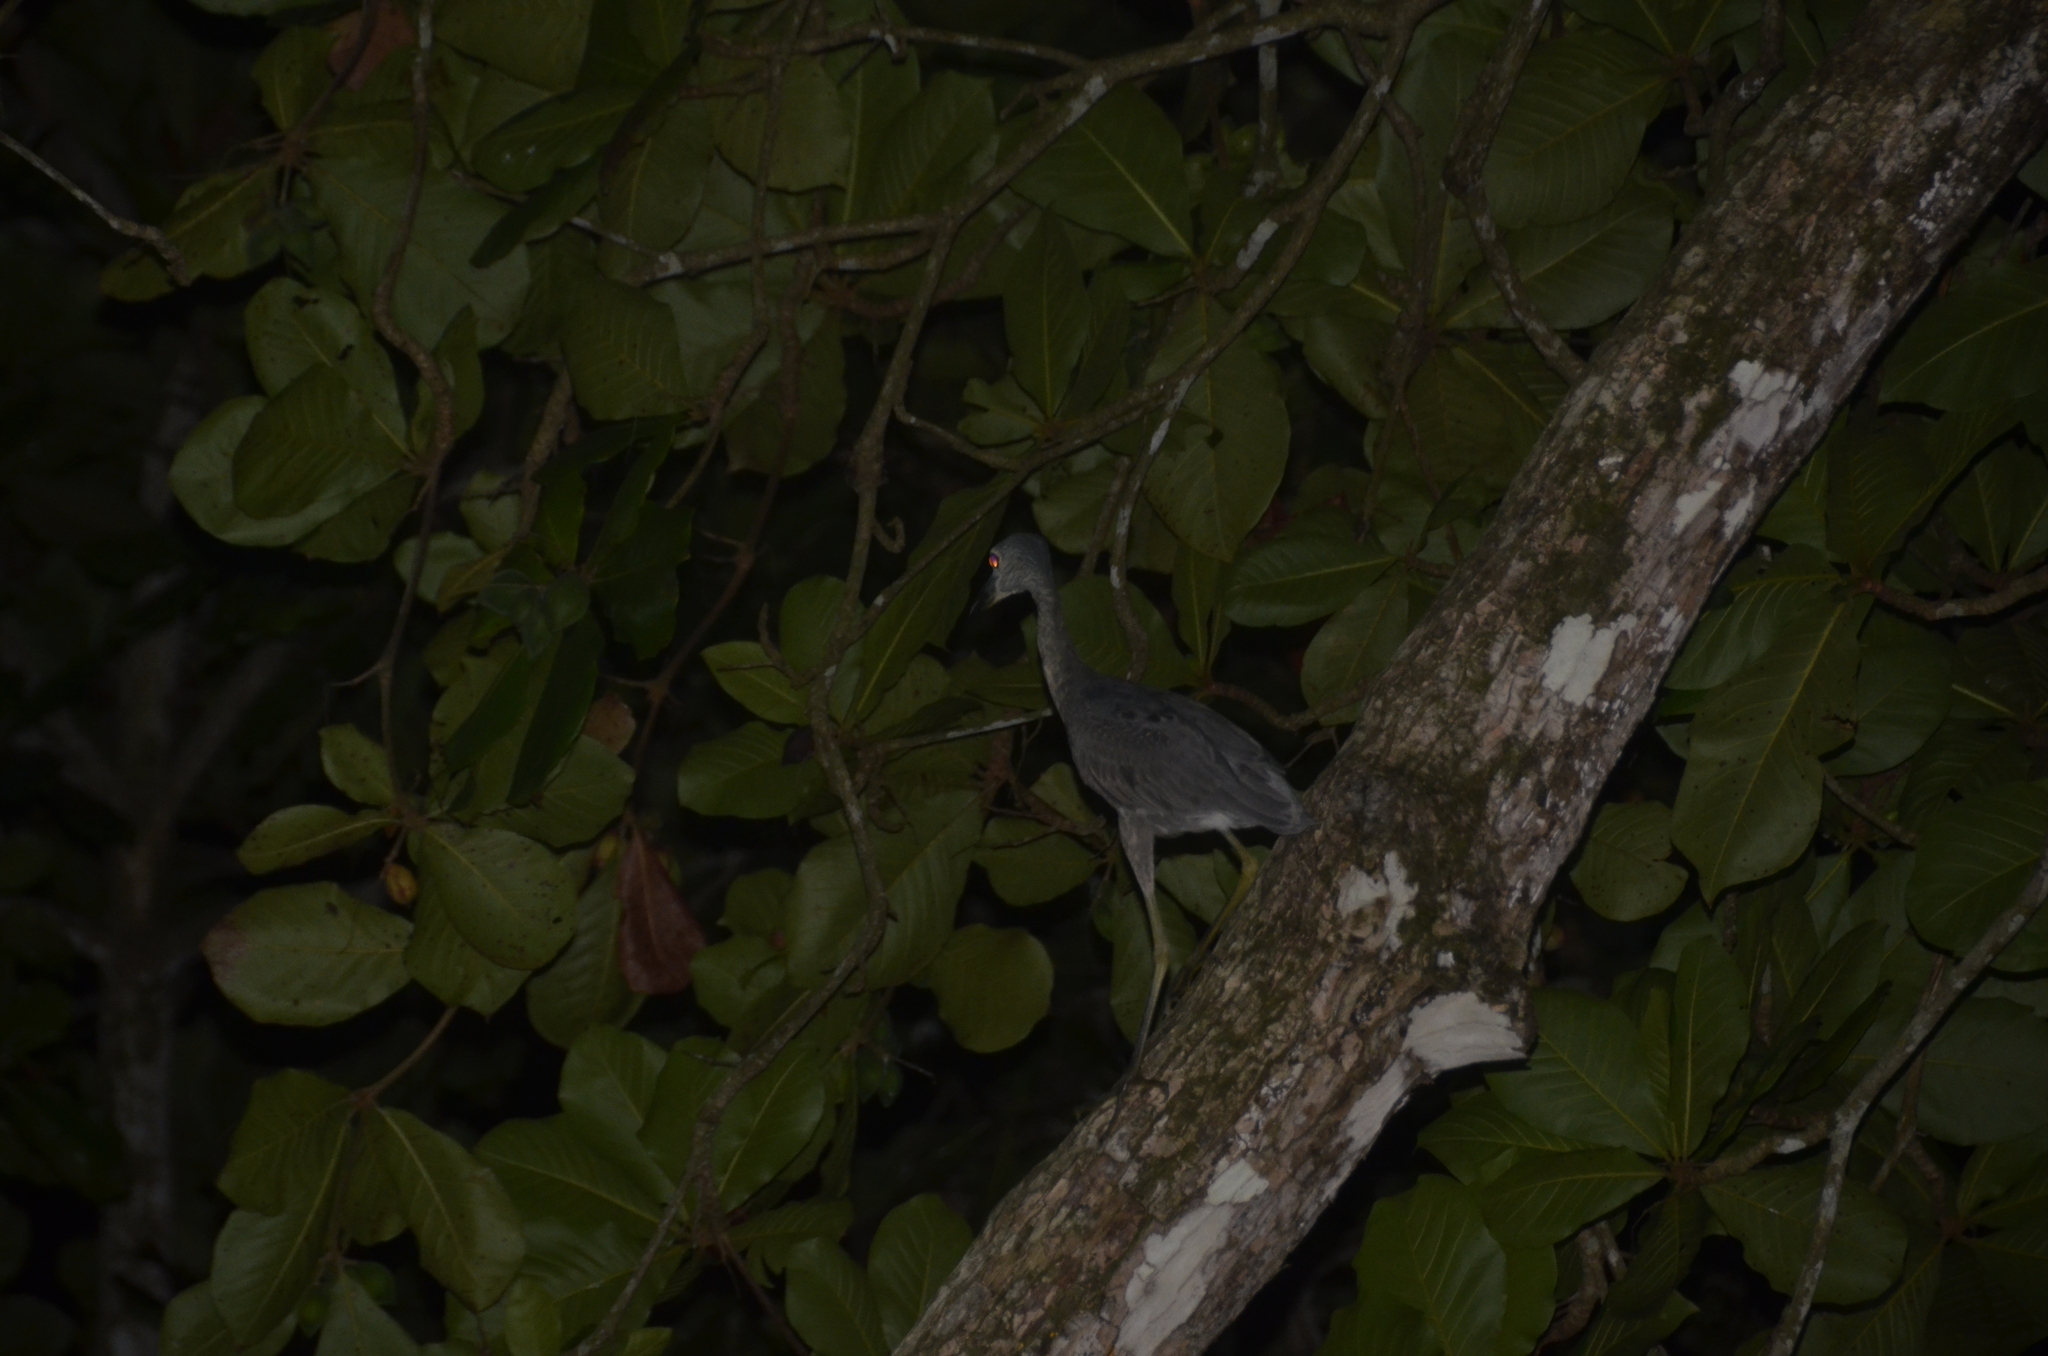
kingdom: Animalia
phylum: Chordata
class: Aves
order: Pelecaniformes
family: Ardeidae
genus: Nyctanassa
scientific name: Nyctanassa violacea
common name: Yellow-crowned night heron
